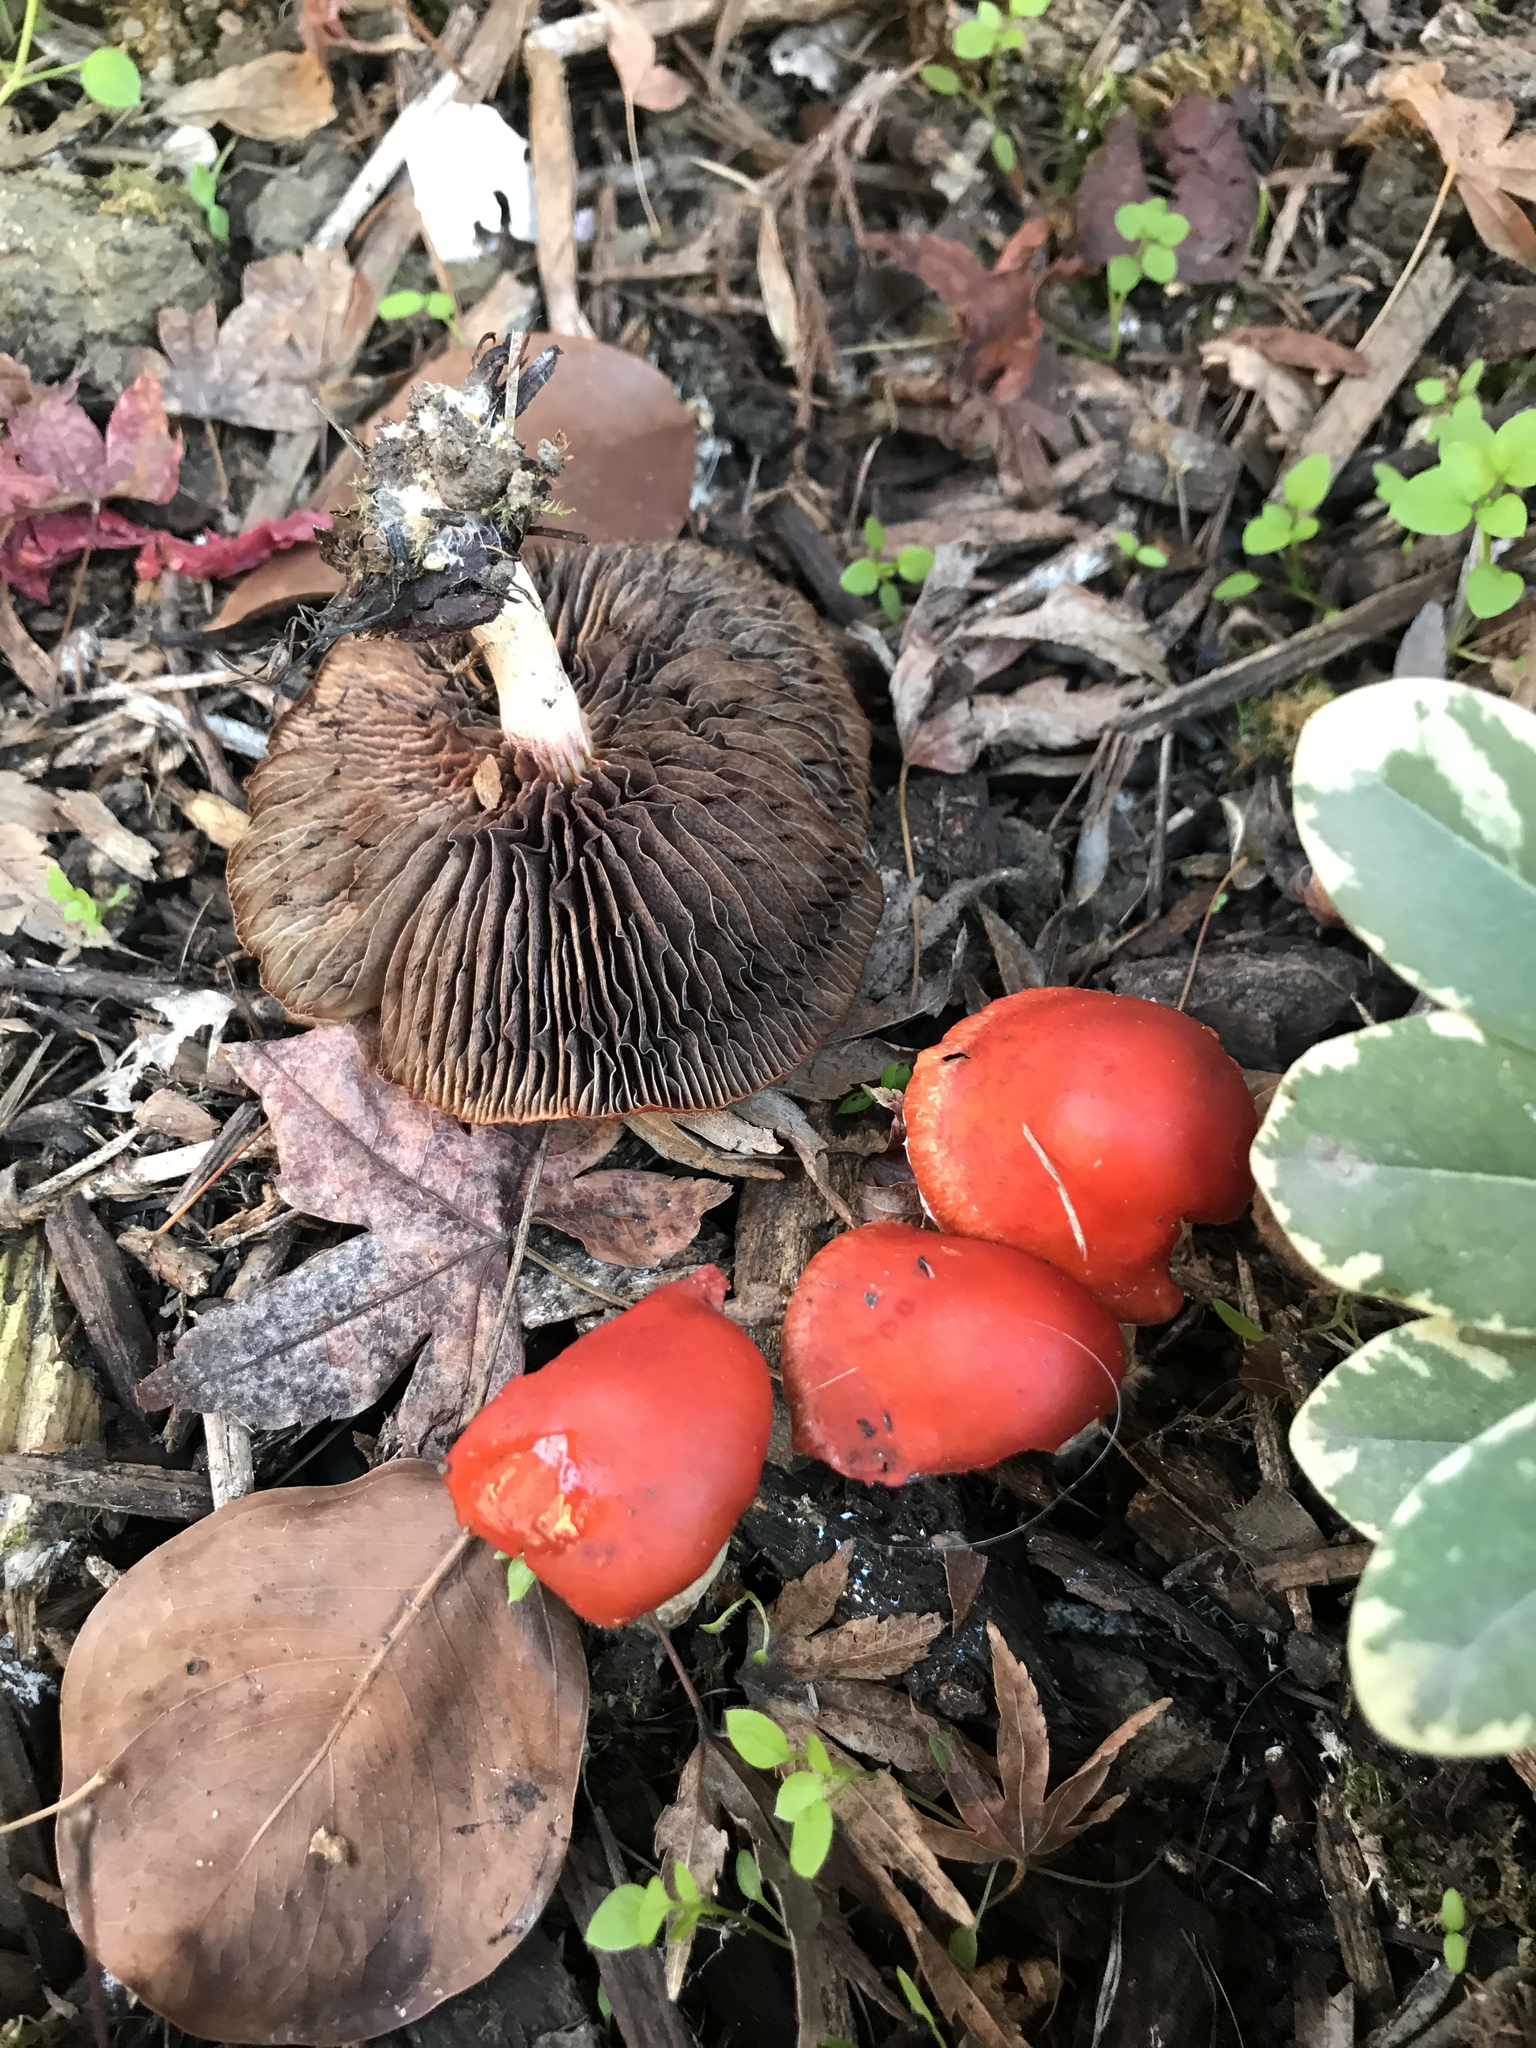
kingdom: Fungi
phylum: Basidiomycota
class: Agaricomycetes
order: Agaricales
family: Strophariaceae
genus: Leratiomyces
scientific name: Leratiomyces ceres
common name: Redlead roundhead
